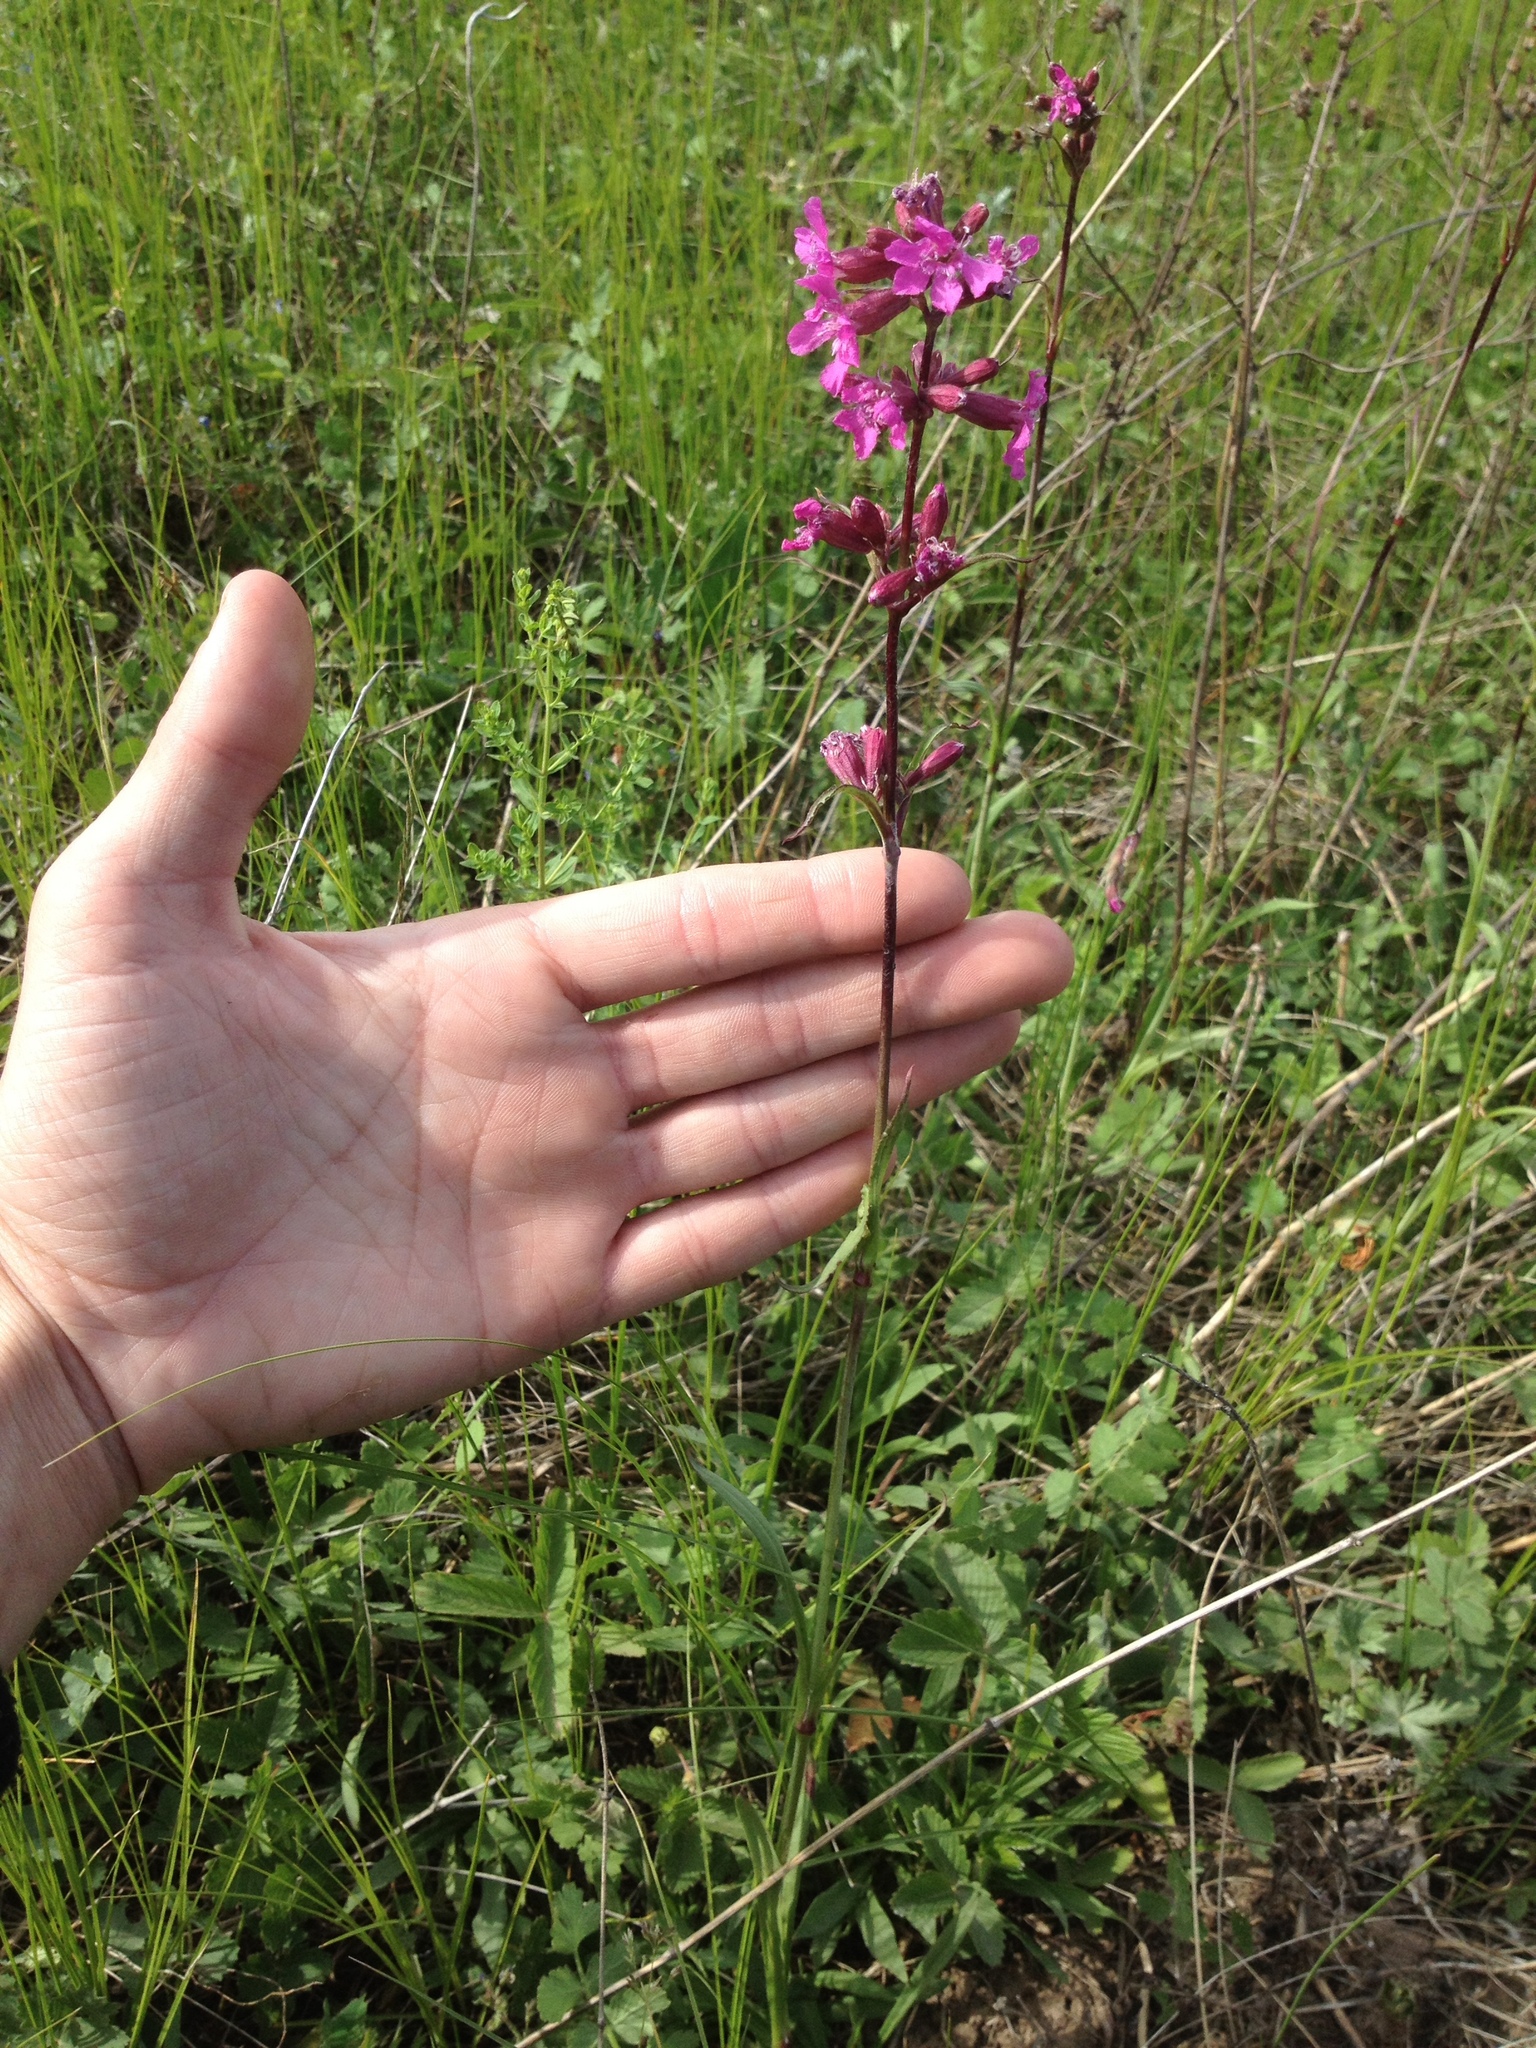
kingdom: Plantae
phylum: Tracheophyta
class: Magnoliopsida
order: Caryophyllales
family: Caryophyllaceae
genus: Viscaria
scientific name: Viscaria vulgaris
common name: Clammy campion
